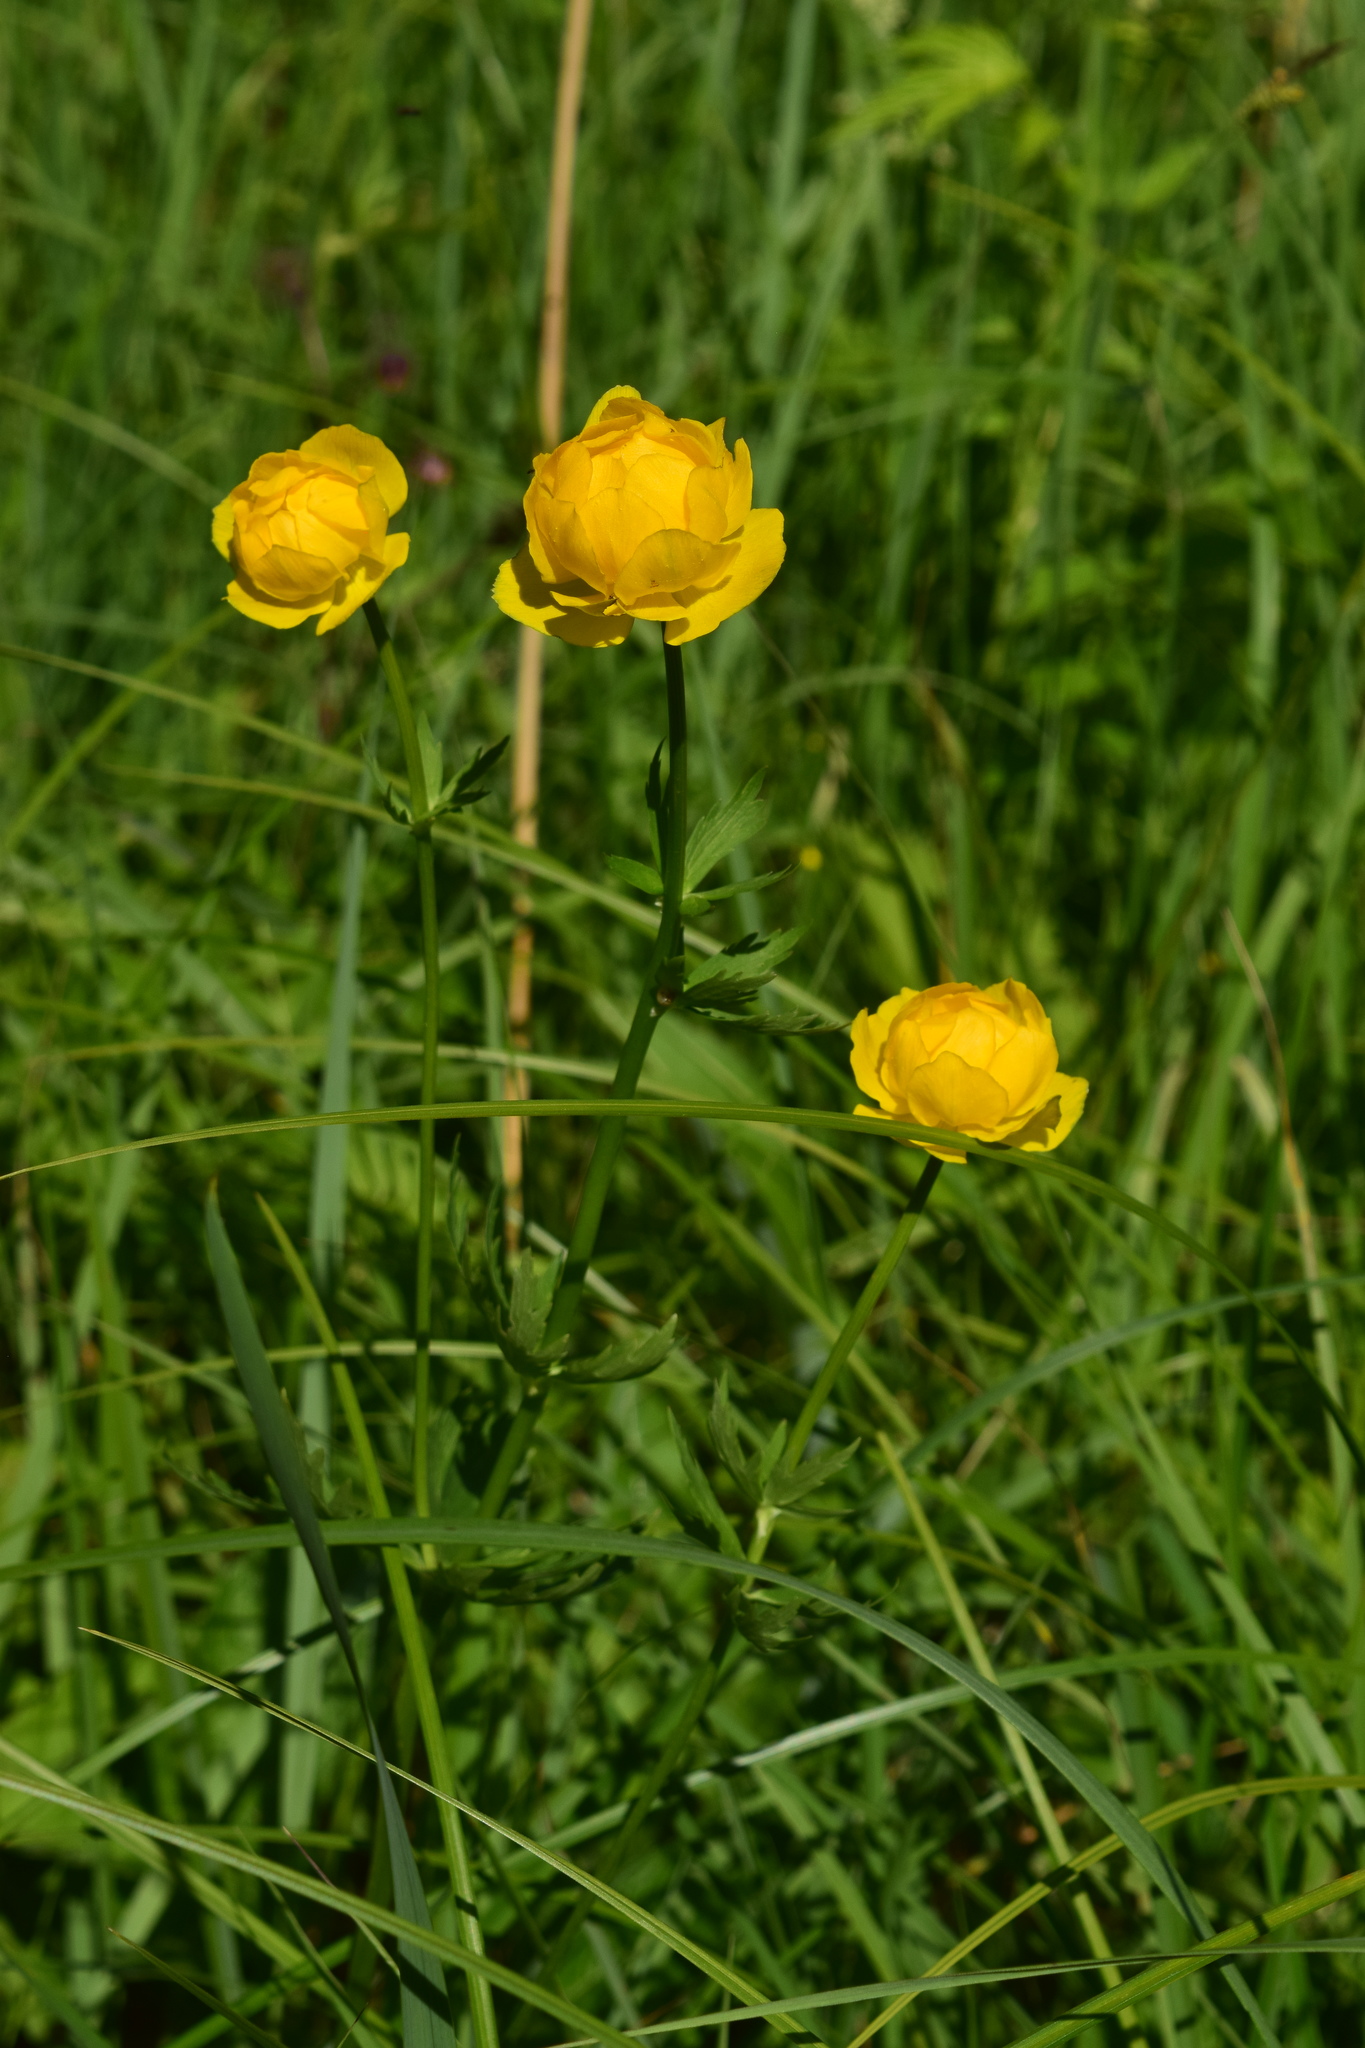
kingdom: Plantae
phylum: Tracheophyta
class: Magnoliopsida
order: Ranunculales
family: Ranunculaceae
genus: Trollius
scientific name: Trollius europaeus
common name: European globeflower
